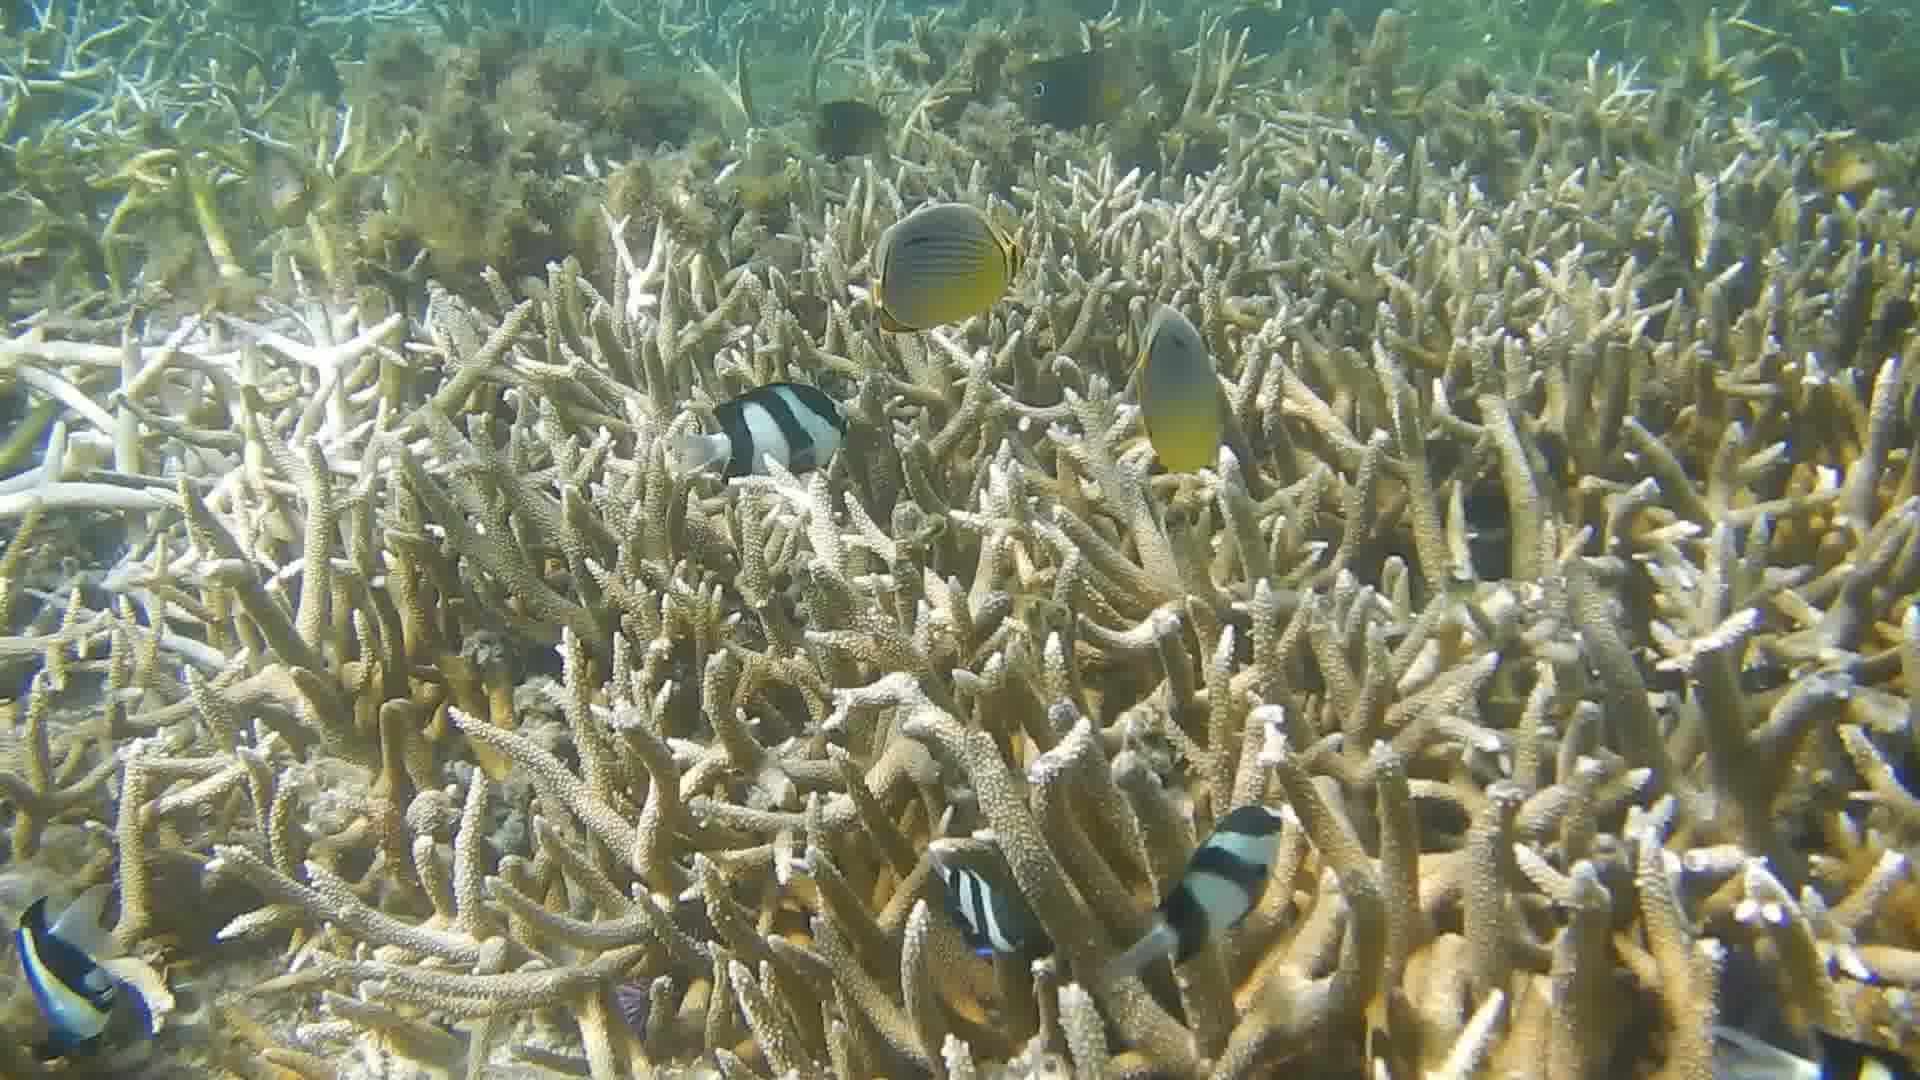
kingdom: Animalia
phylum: Chordata
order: Perciformes
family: Chaetodontidae
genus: Chaetodon
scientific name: Chaetodon trifasciatus
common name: Redfin butterflyfish
